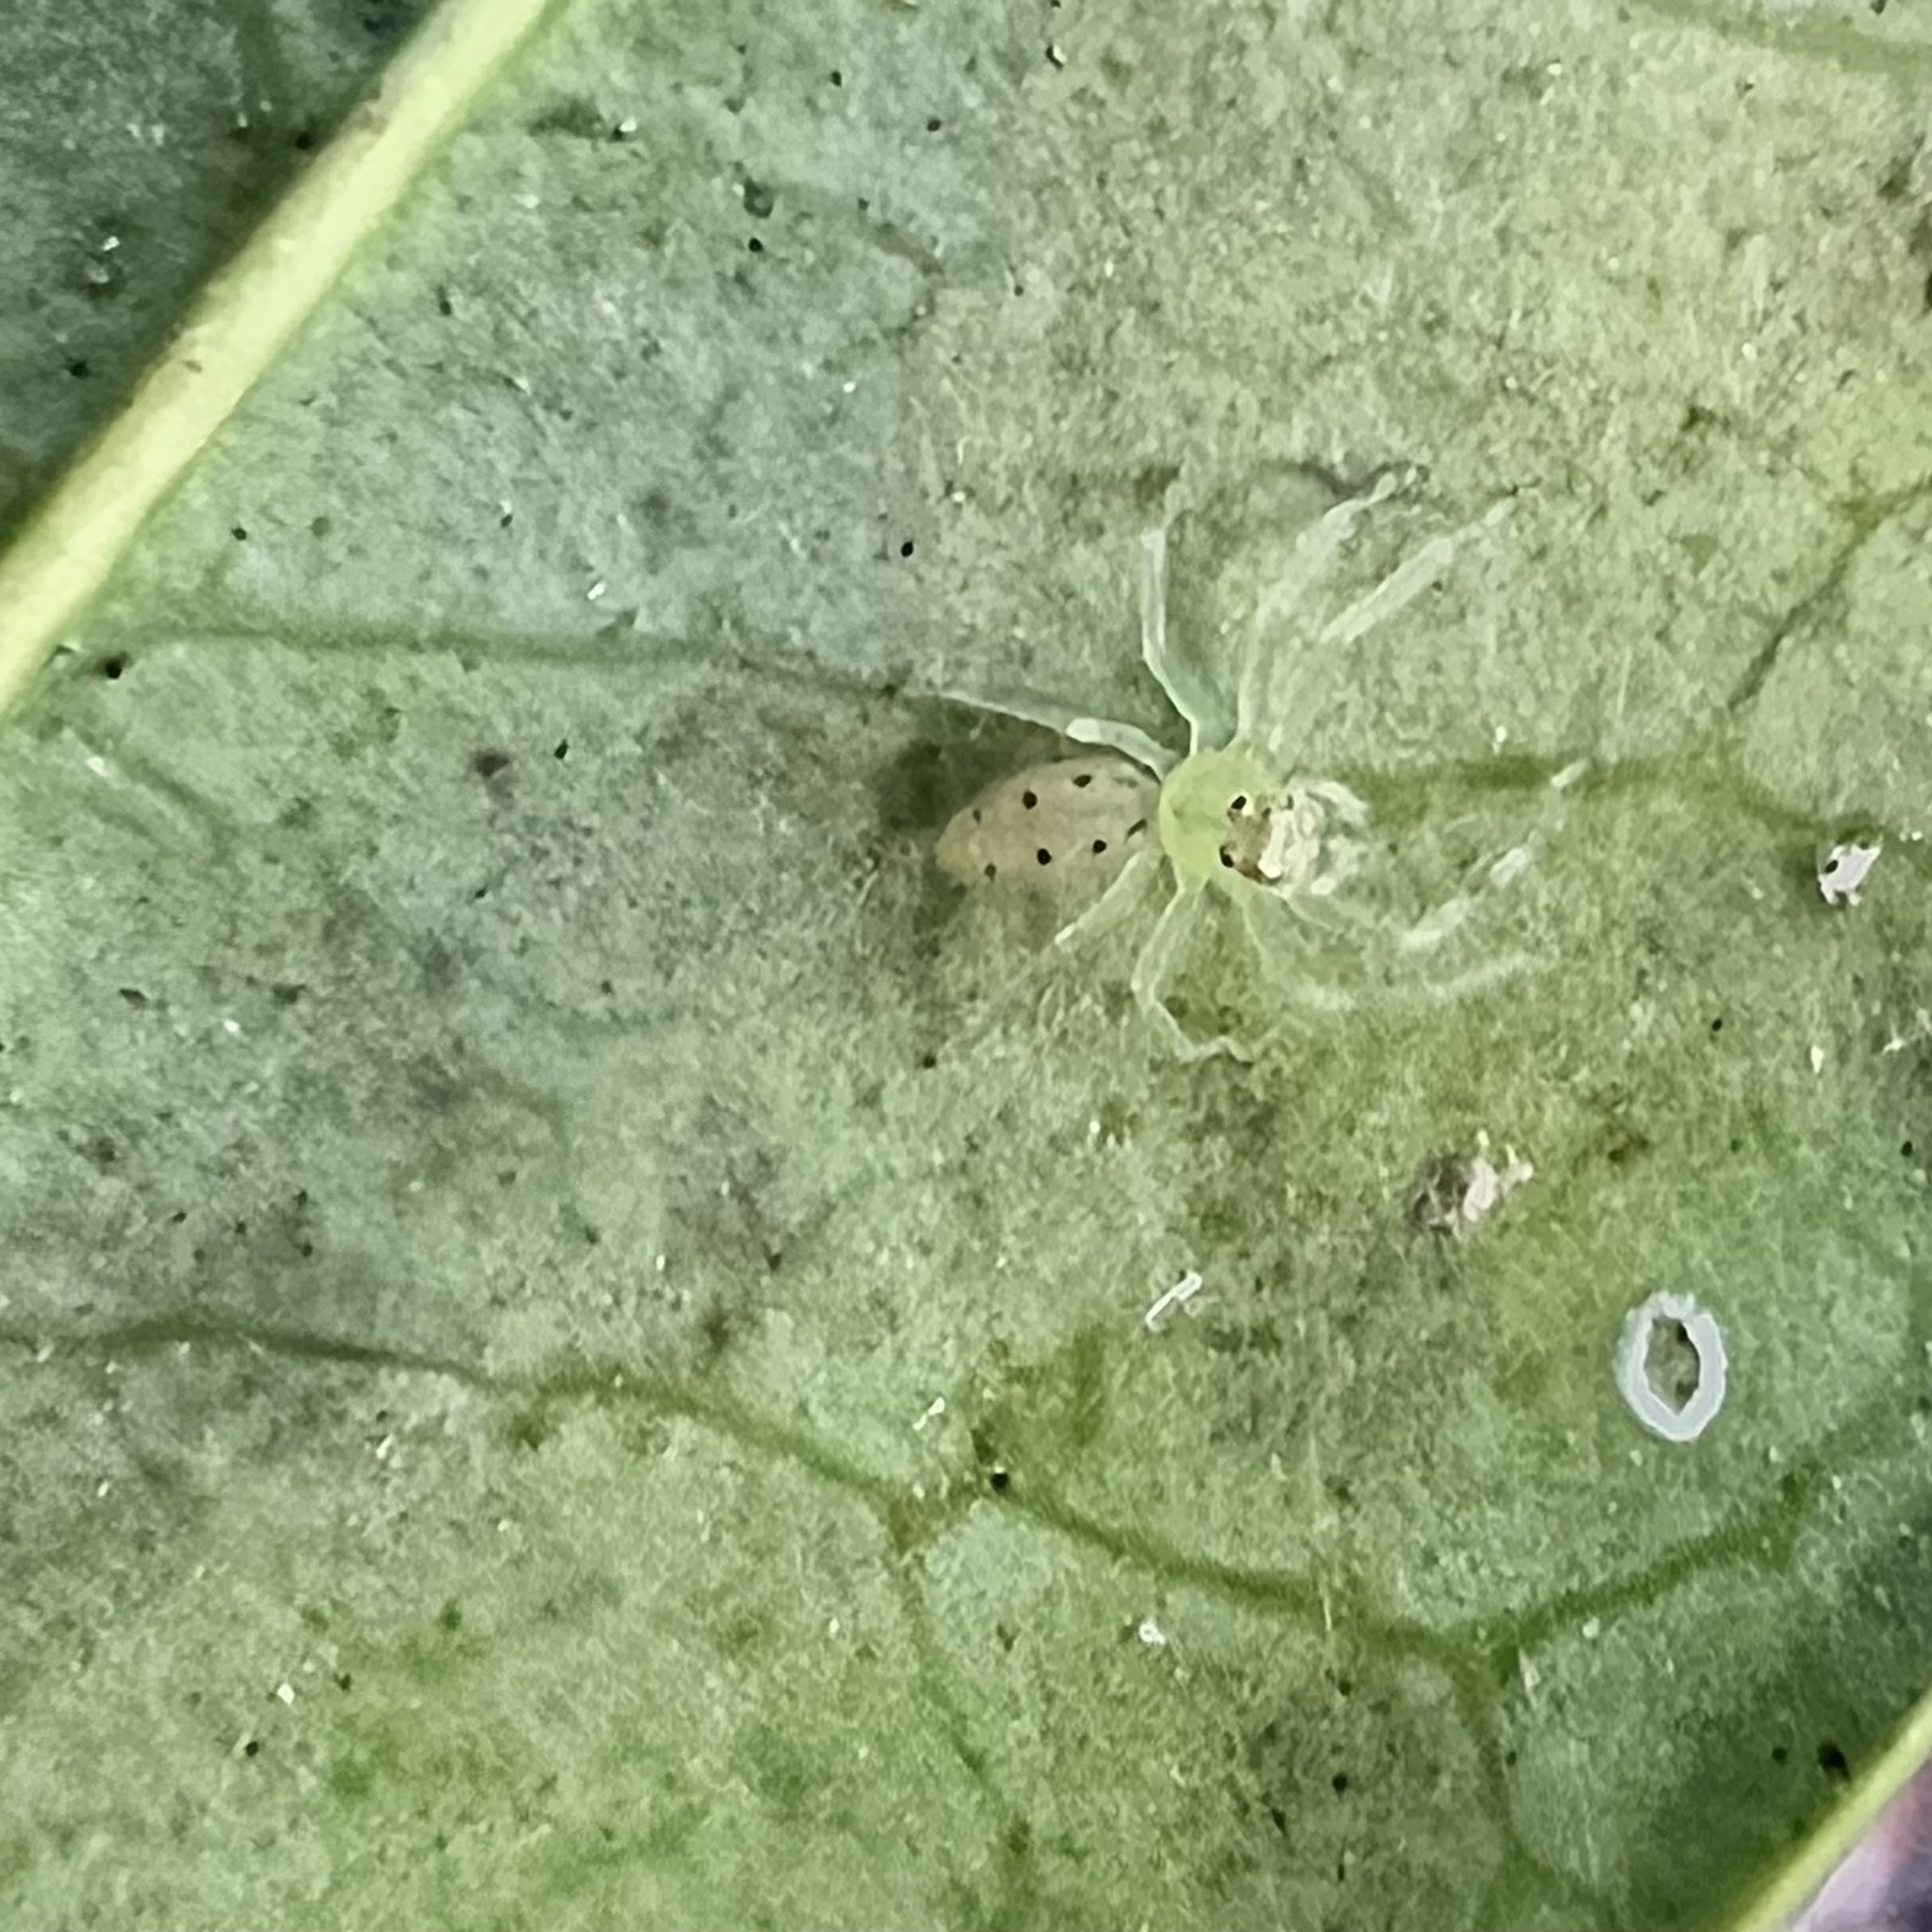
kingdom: Animalia
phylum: Arthropoda
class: Arachnida
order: Araneae
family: Salticidae
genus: Lyssomanes
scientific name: Lyssomanes viridis
